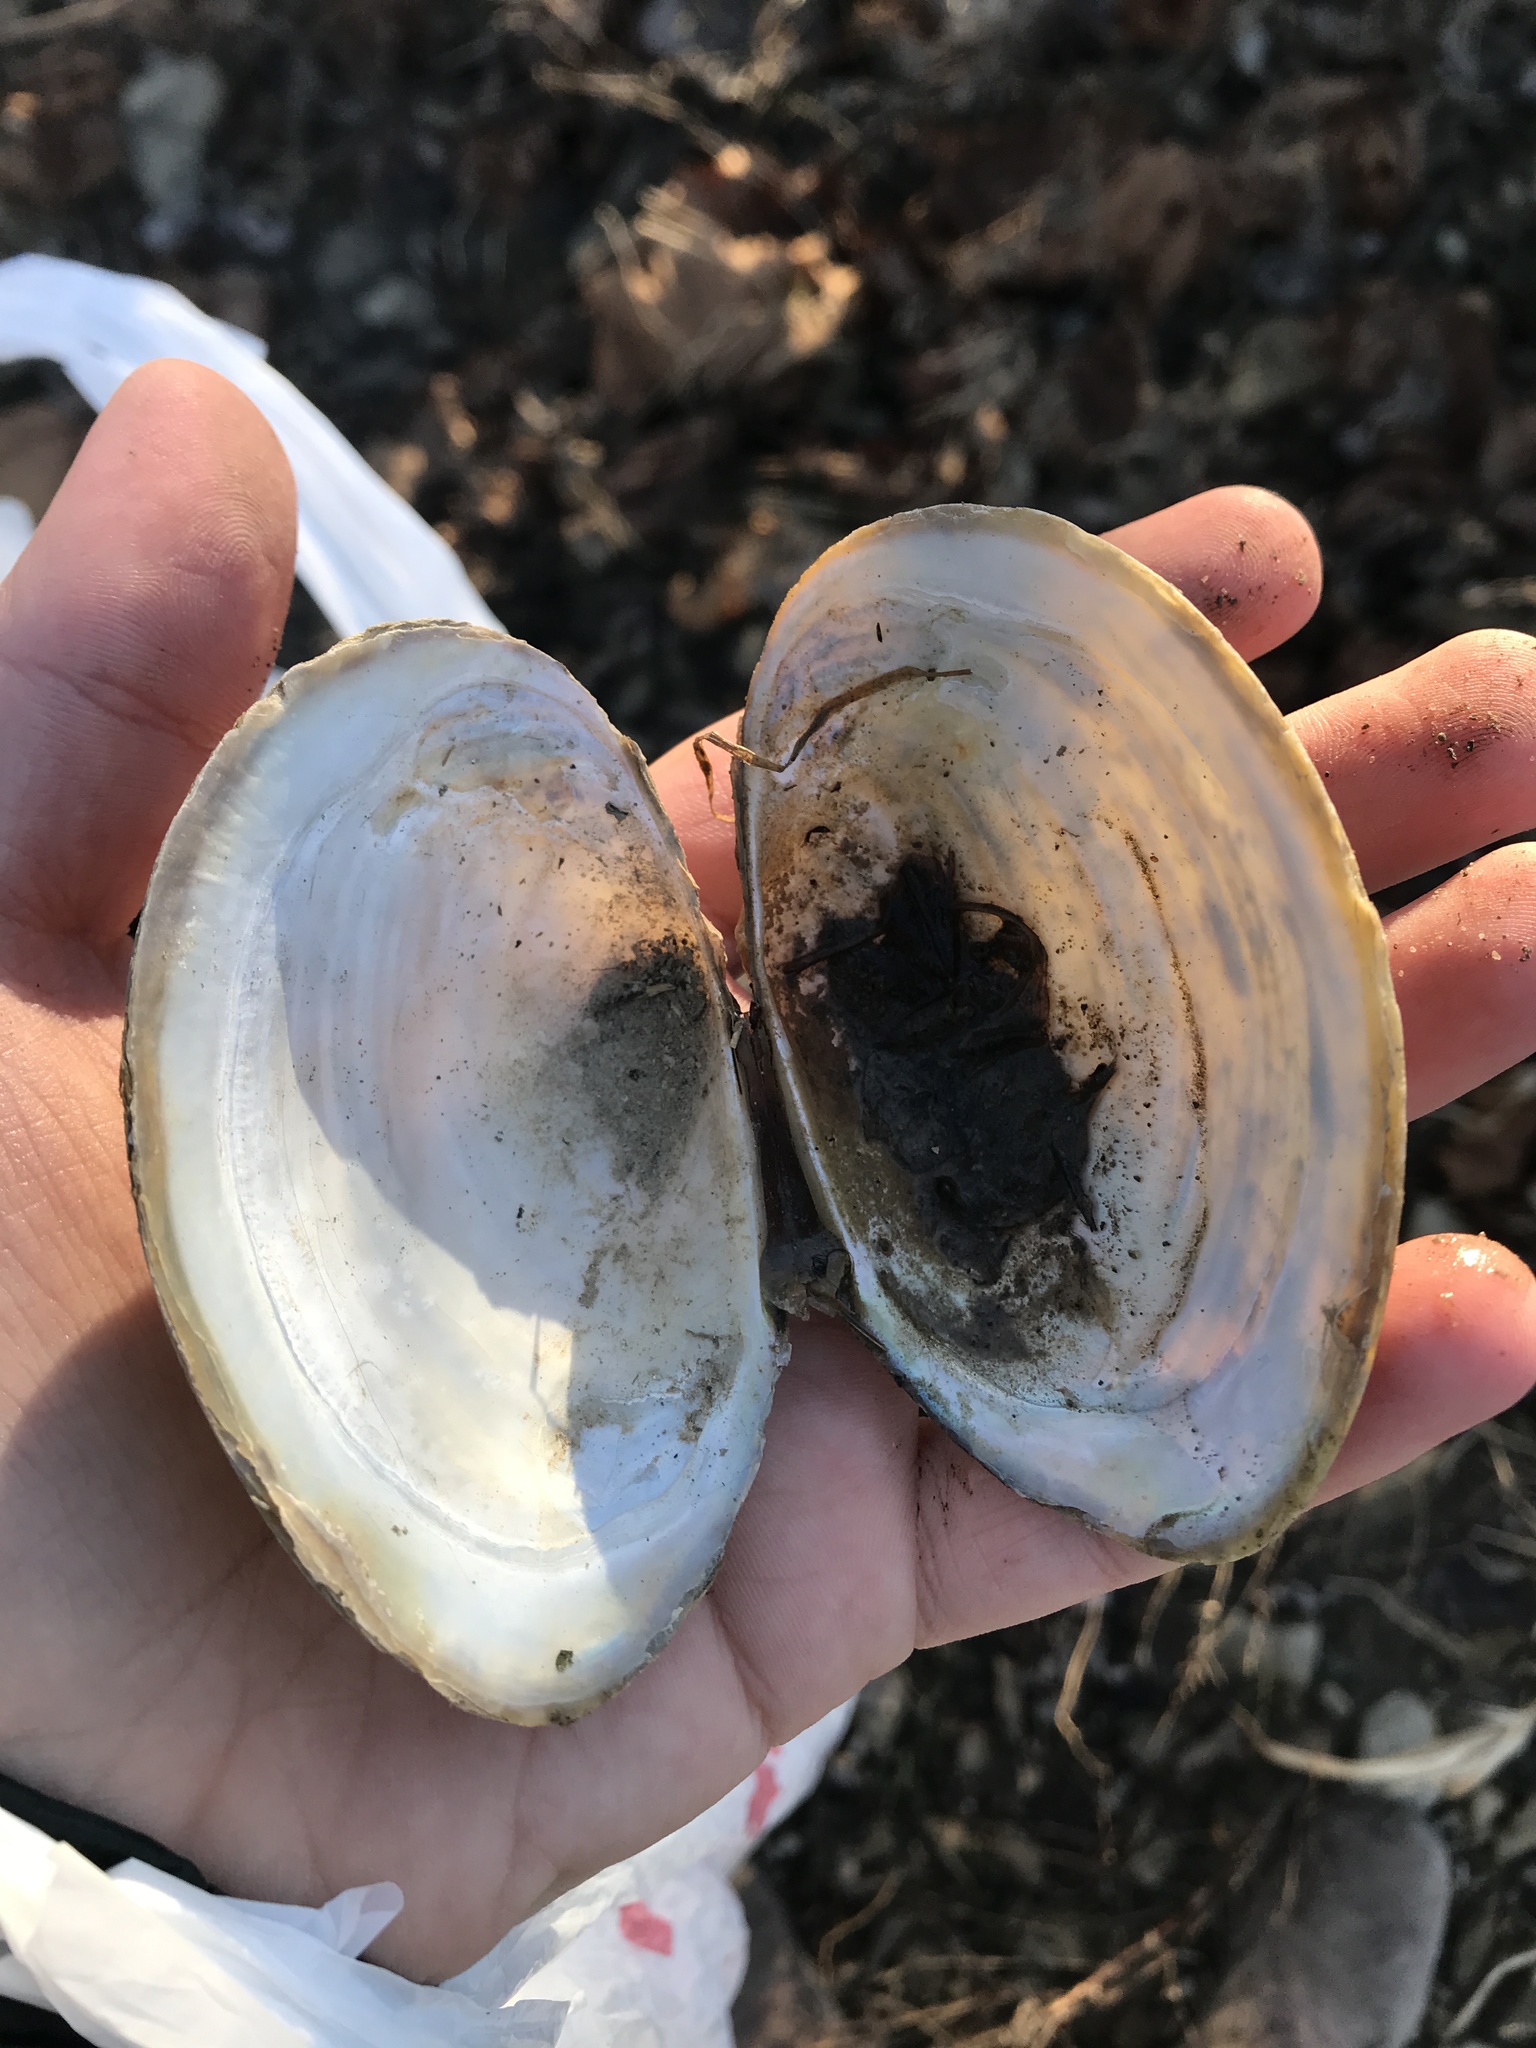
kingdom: Animalia
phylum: Mollusca
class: Bivalvia
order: Unionida
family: Unionidae
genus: Pyganodon
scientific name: Pyganodon grandis
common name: Giant floater
